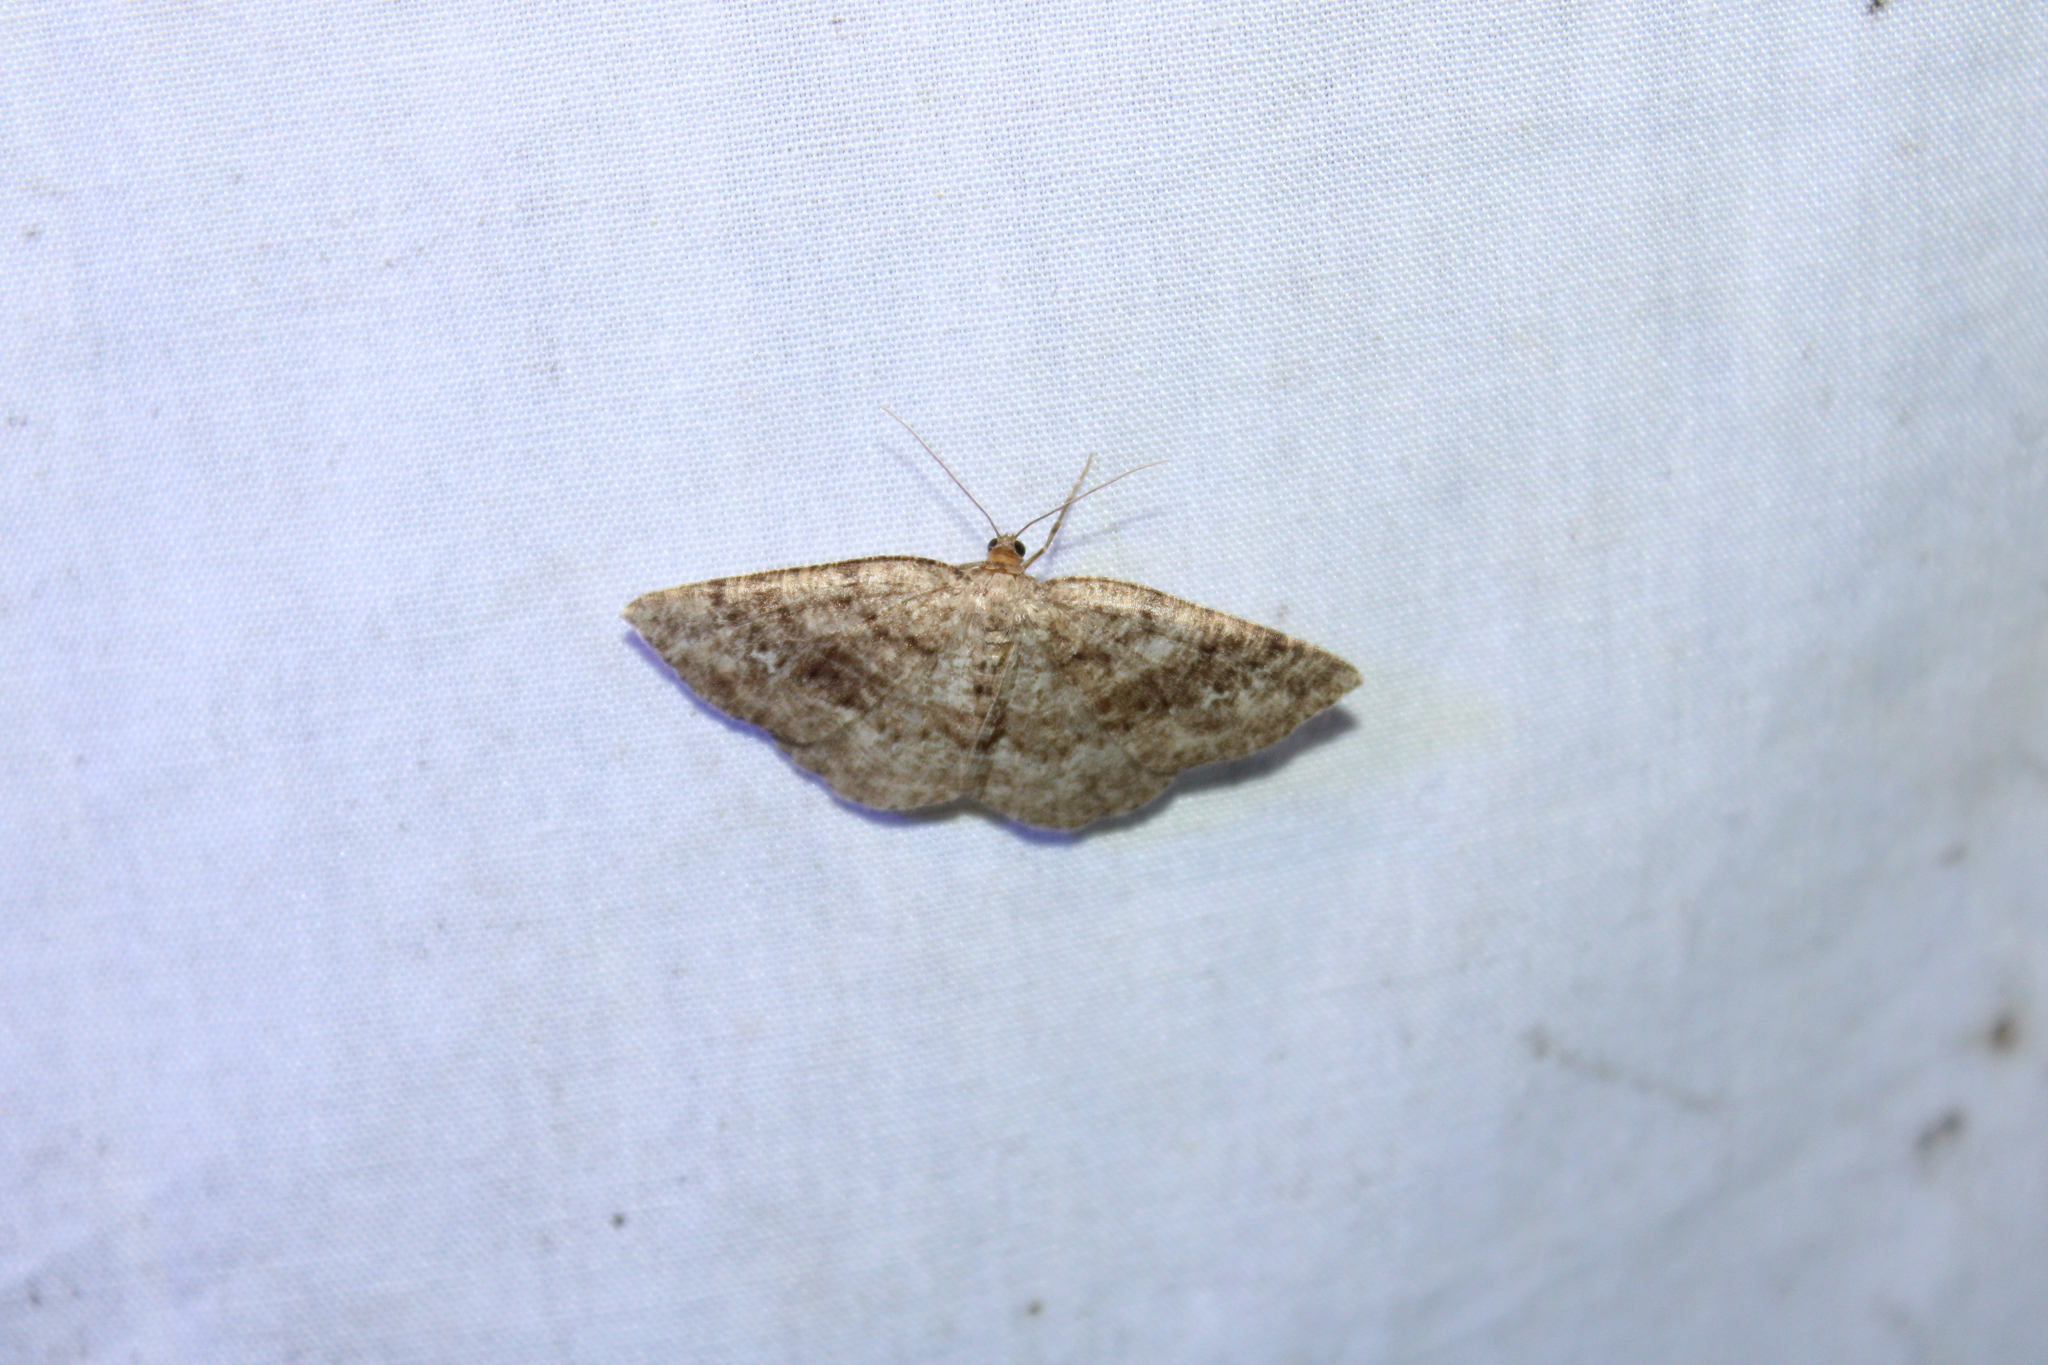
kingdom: Animalia
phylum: Arthropoda
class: Insecta
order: Lepidoptera
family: Geometridae
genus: Homochlodes
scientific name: Homochlodes fritillaria
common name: Pale homochlodes
